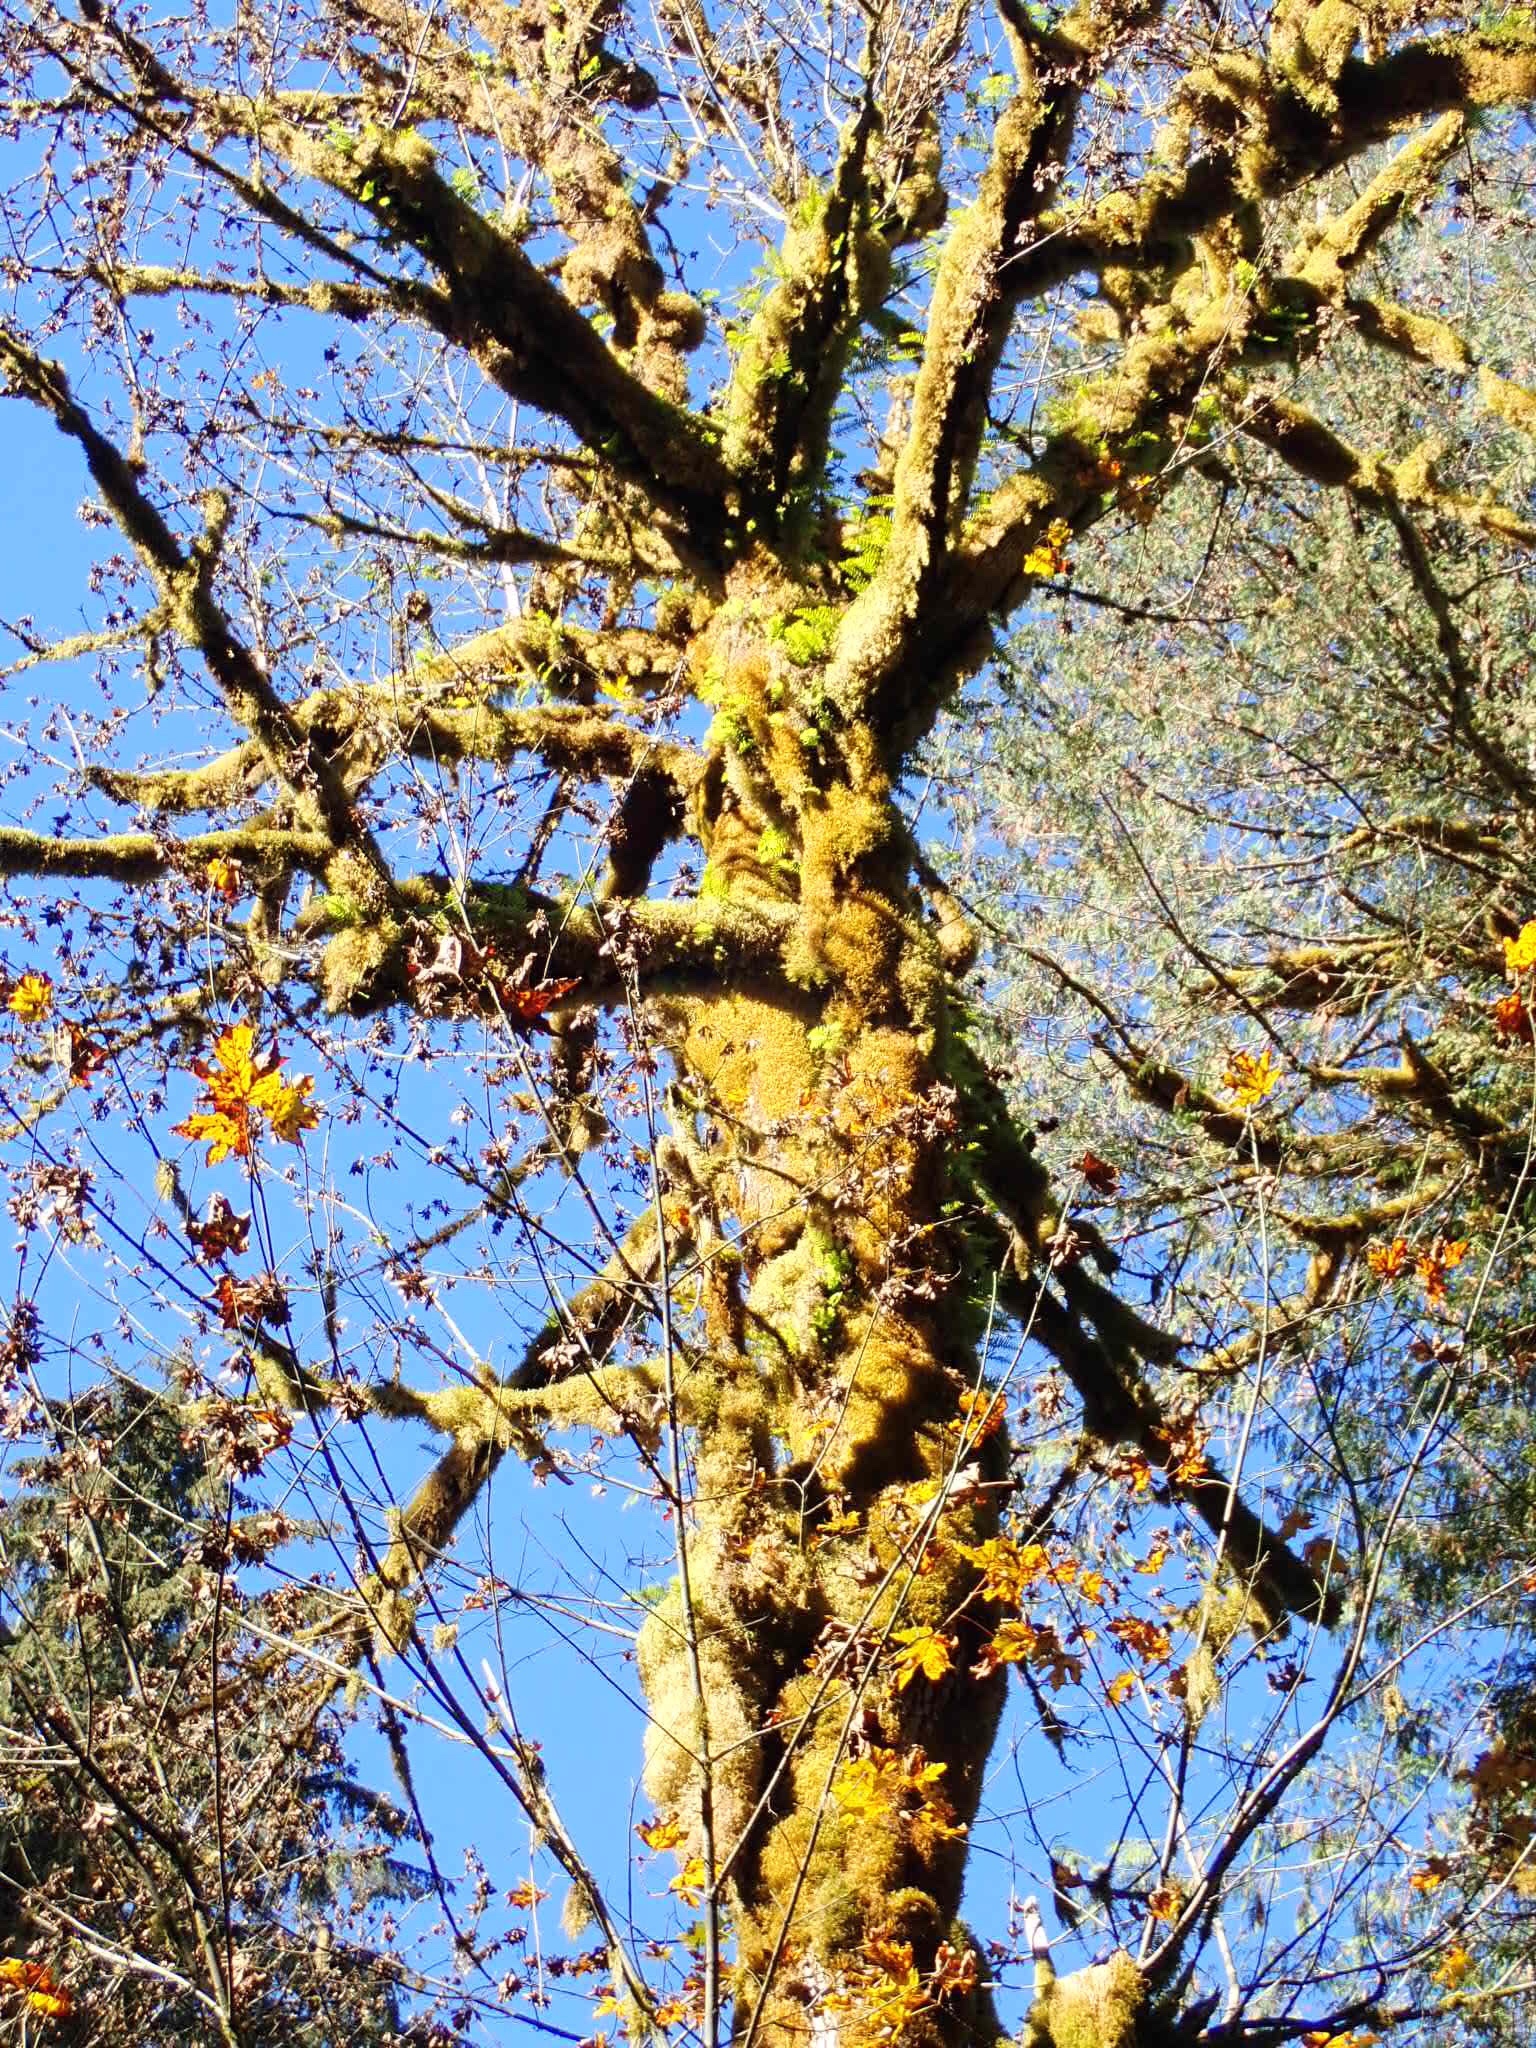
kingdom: Plantae
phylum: Tracheophyta
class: Magnoliopsida
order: Sapindales
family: Sapindaceae
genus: Acer
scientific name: Acer macrophyllum
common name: Oregon maple
